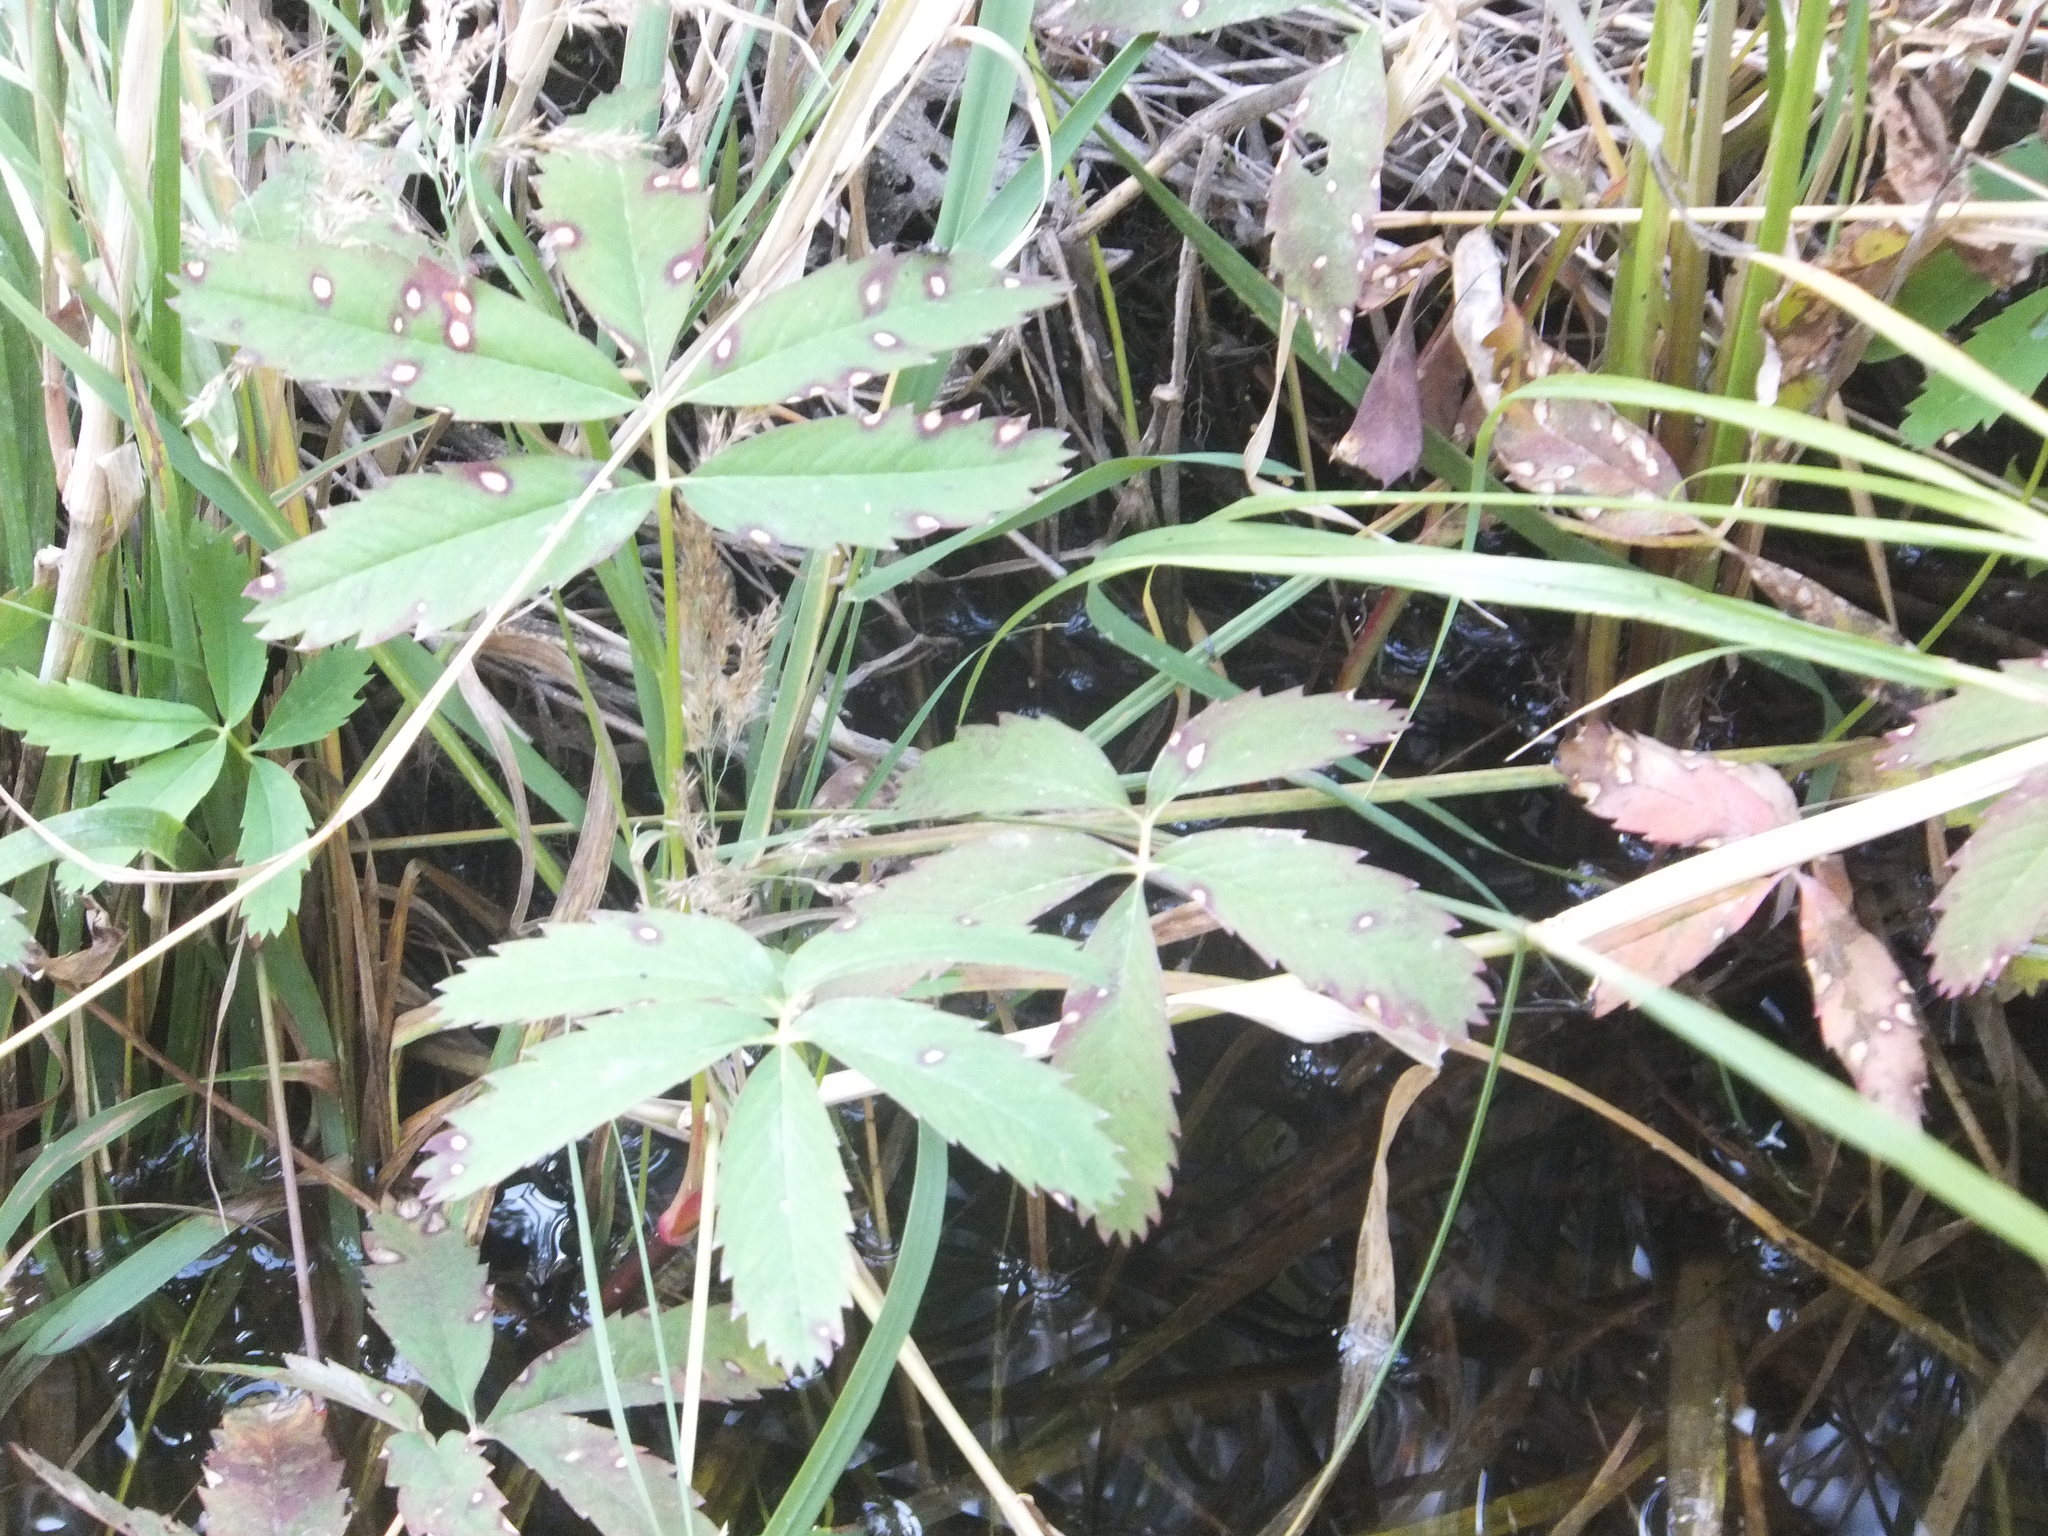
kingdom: Plantae
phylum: Tracheophyta
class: Magnoliopsida
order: Rosales
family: Rosaceae
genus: Comarum
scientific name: Comarum palustre
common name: Marsh cinquefoil
